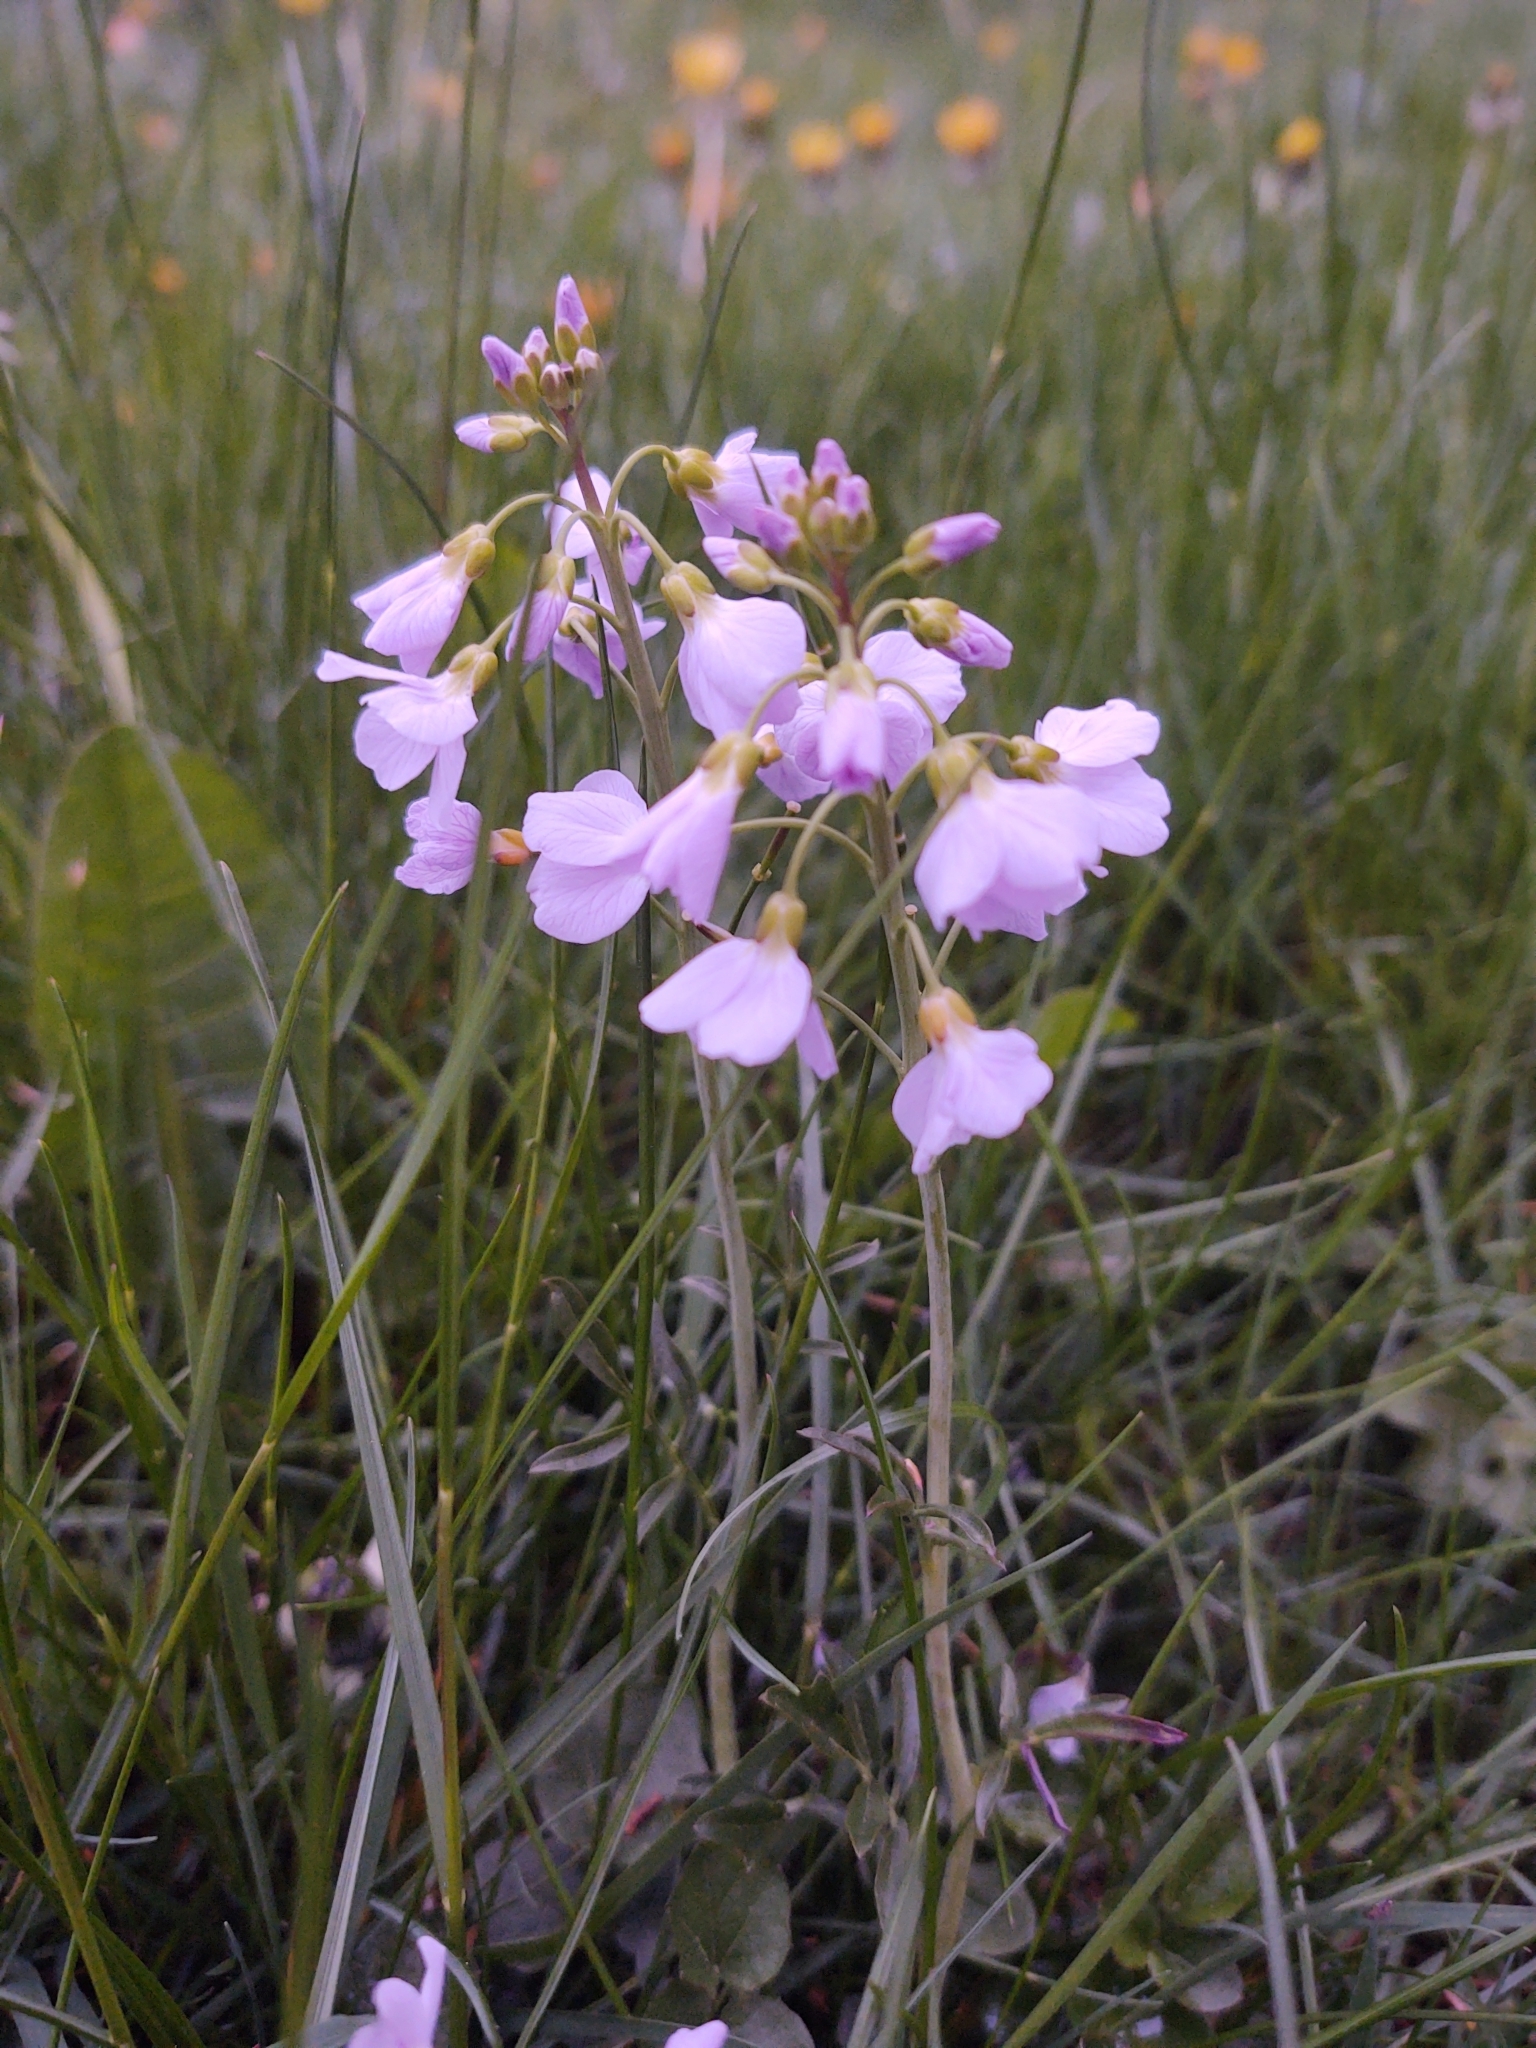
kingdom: Plantae
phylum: Tracheophyta
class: Magnoliopsida
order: Brassicales
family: Brassicaceae
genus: Cardamine
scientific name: Cardamine pratensis
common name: Cuckoo flower
